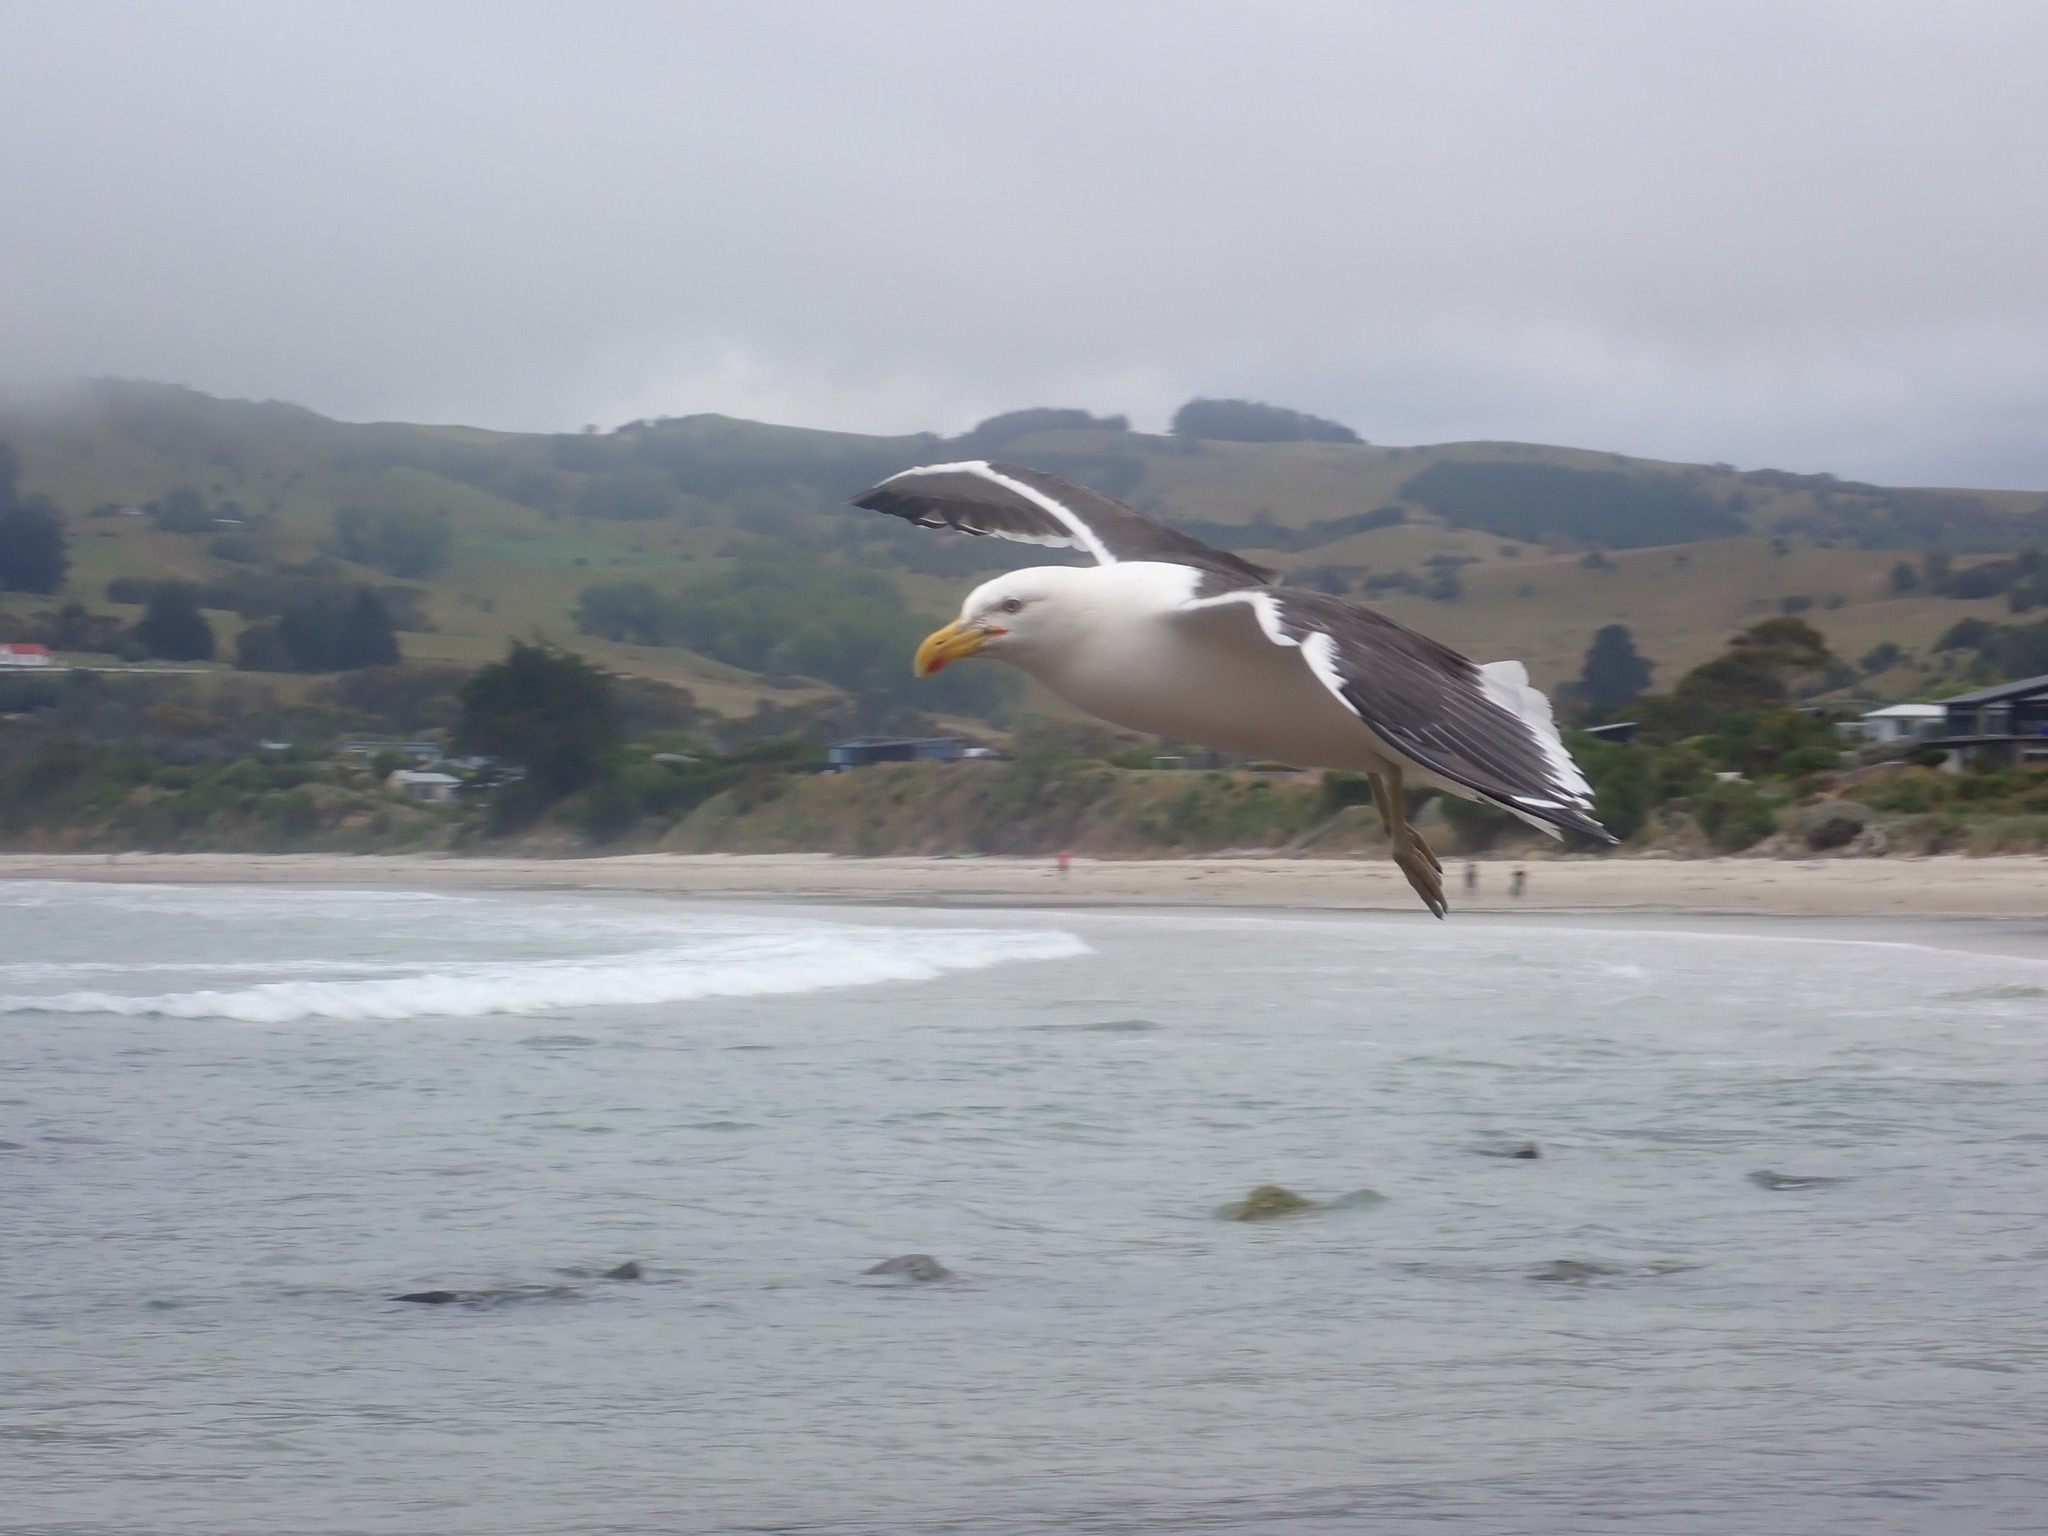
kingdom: Animalia
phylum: Chordata
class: Aves
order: Charadriiformes
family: Laridae
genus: Larus
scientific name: Larus dominicanus
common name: Kelp gull
